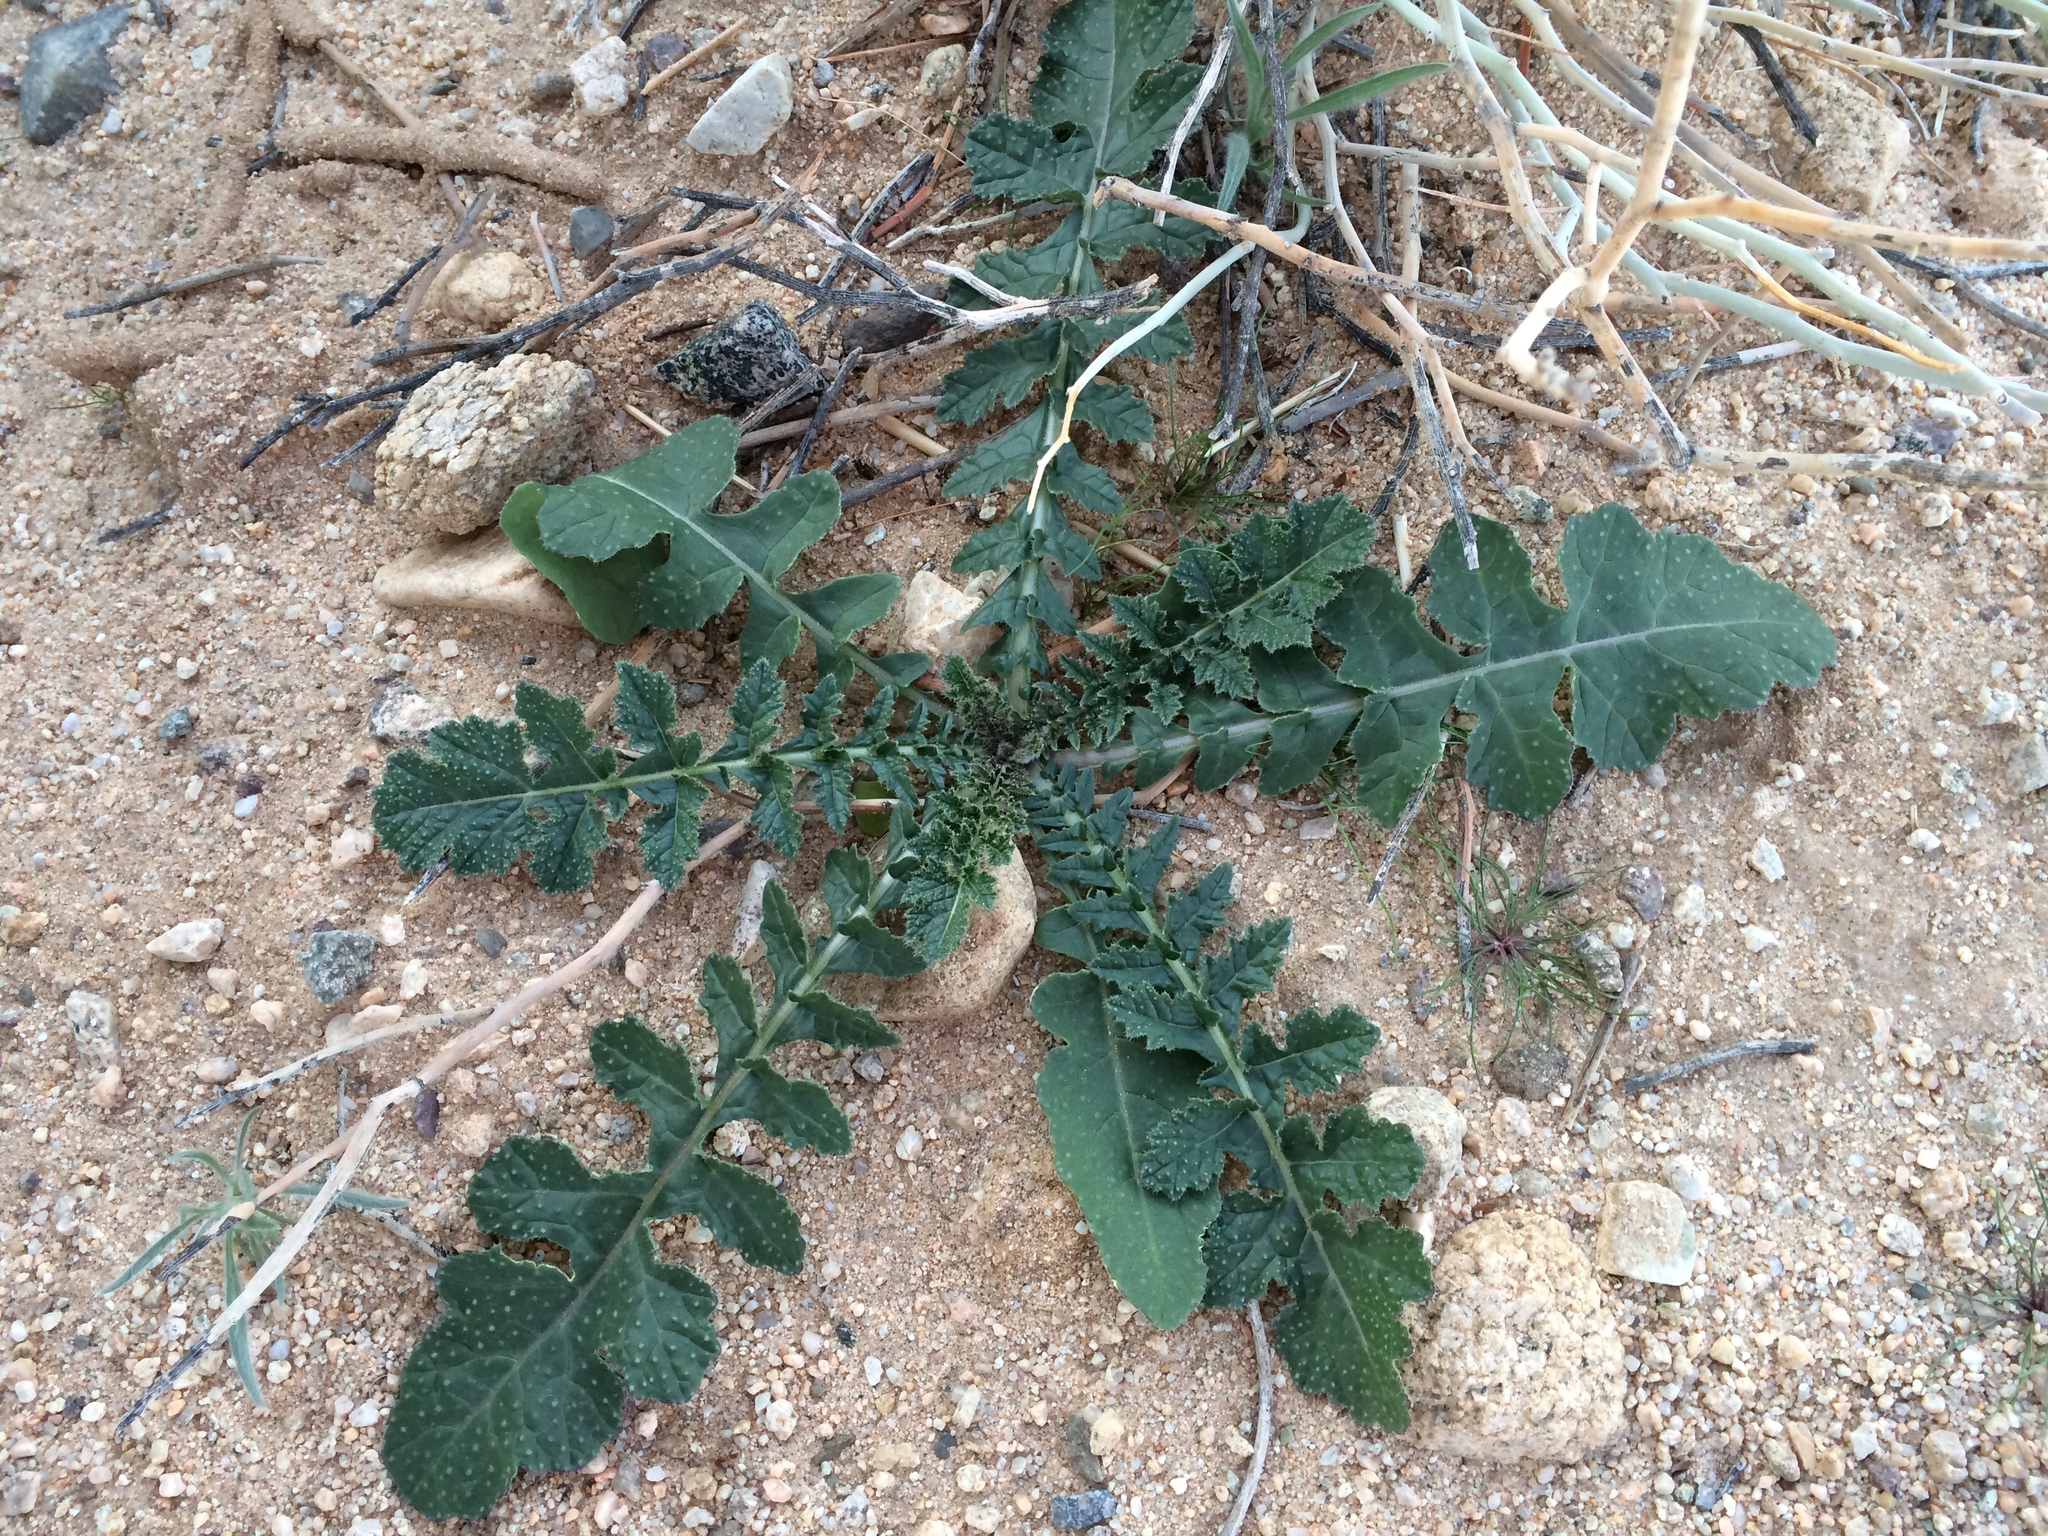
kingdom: Plantae
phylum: Tracheophyta
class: Magnoliopsida
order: Brassicales
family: Brassicaceae
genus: Brassica
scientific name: Brassica tournefortii
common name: Pale cabbage
